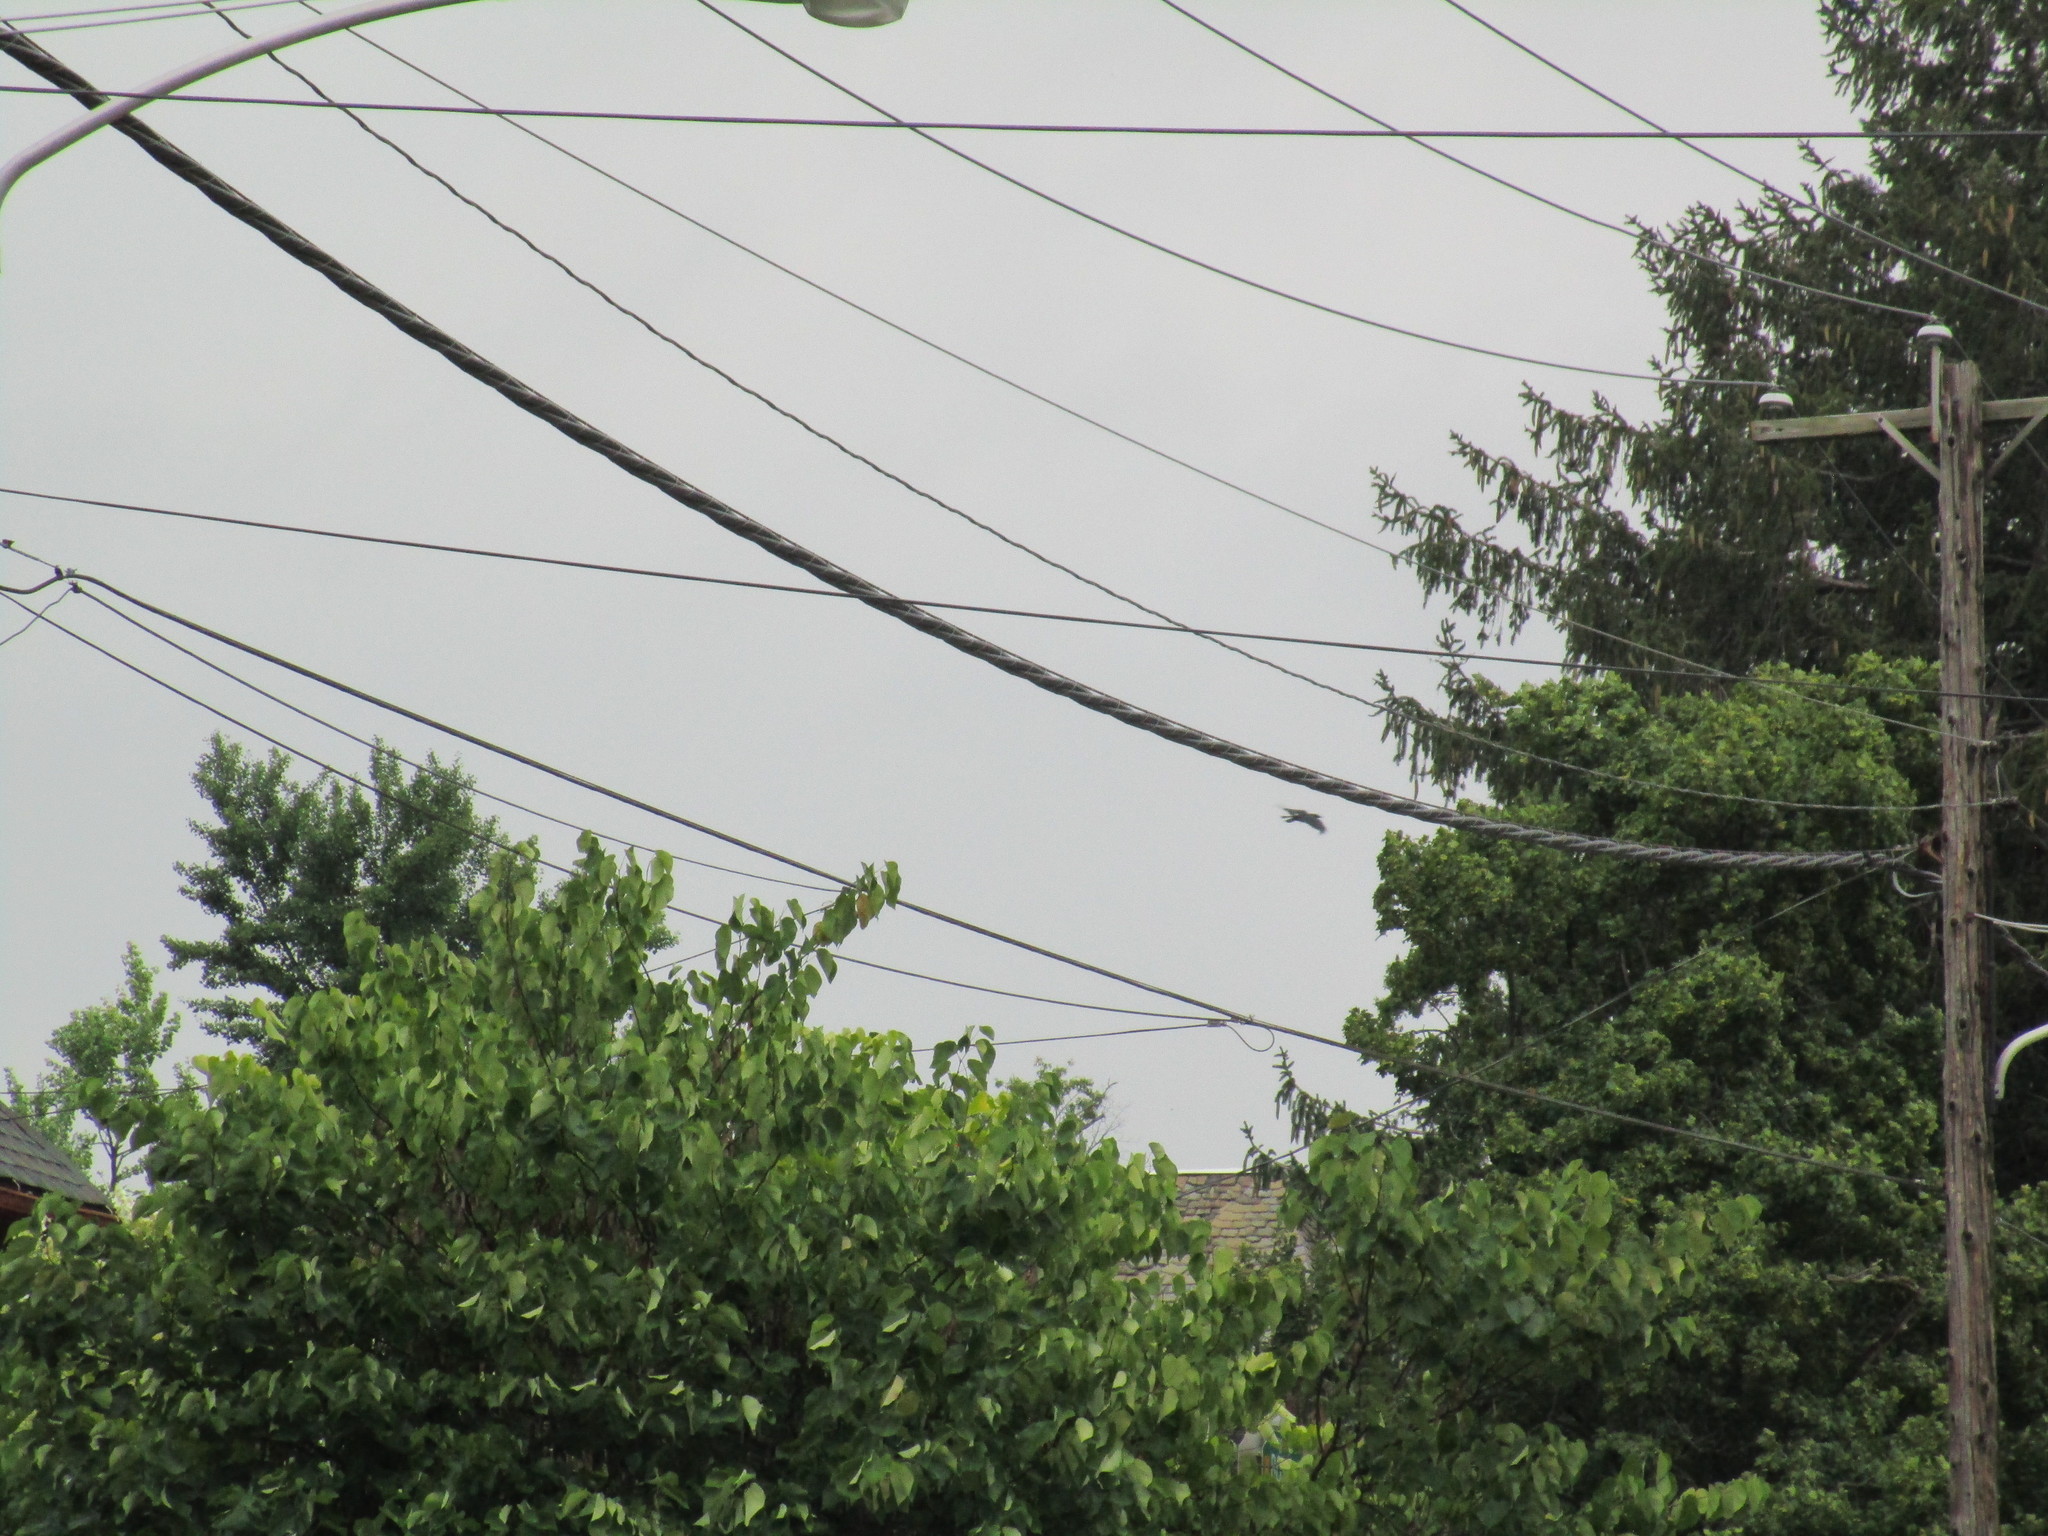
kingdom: Animalia
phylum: Chordata
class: Aves
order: Passeriformes
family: Corvidae
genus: Corvus
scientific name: Corvus brachyrhynchos
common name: American crow
